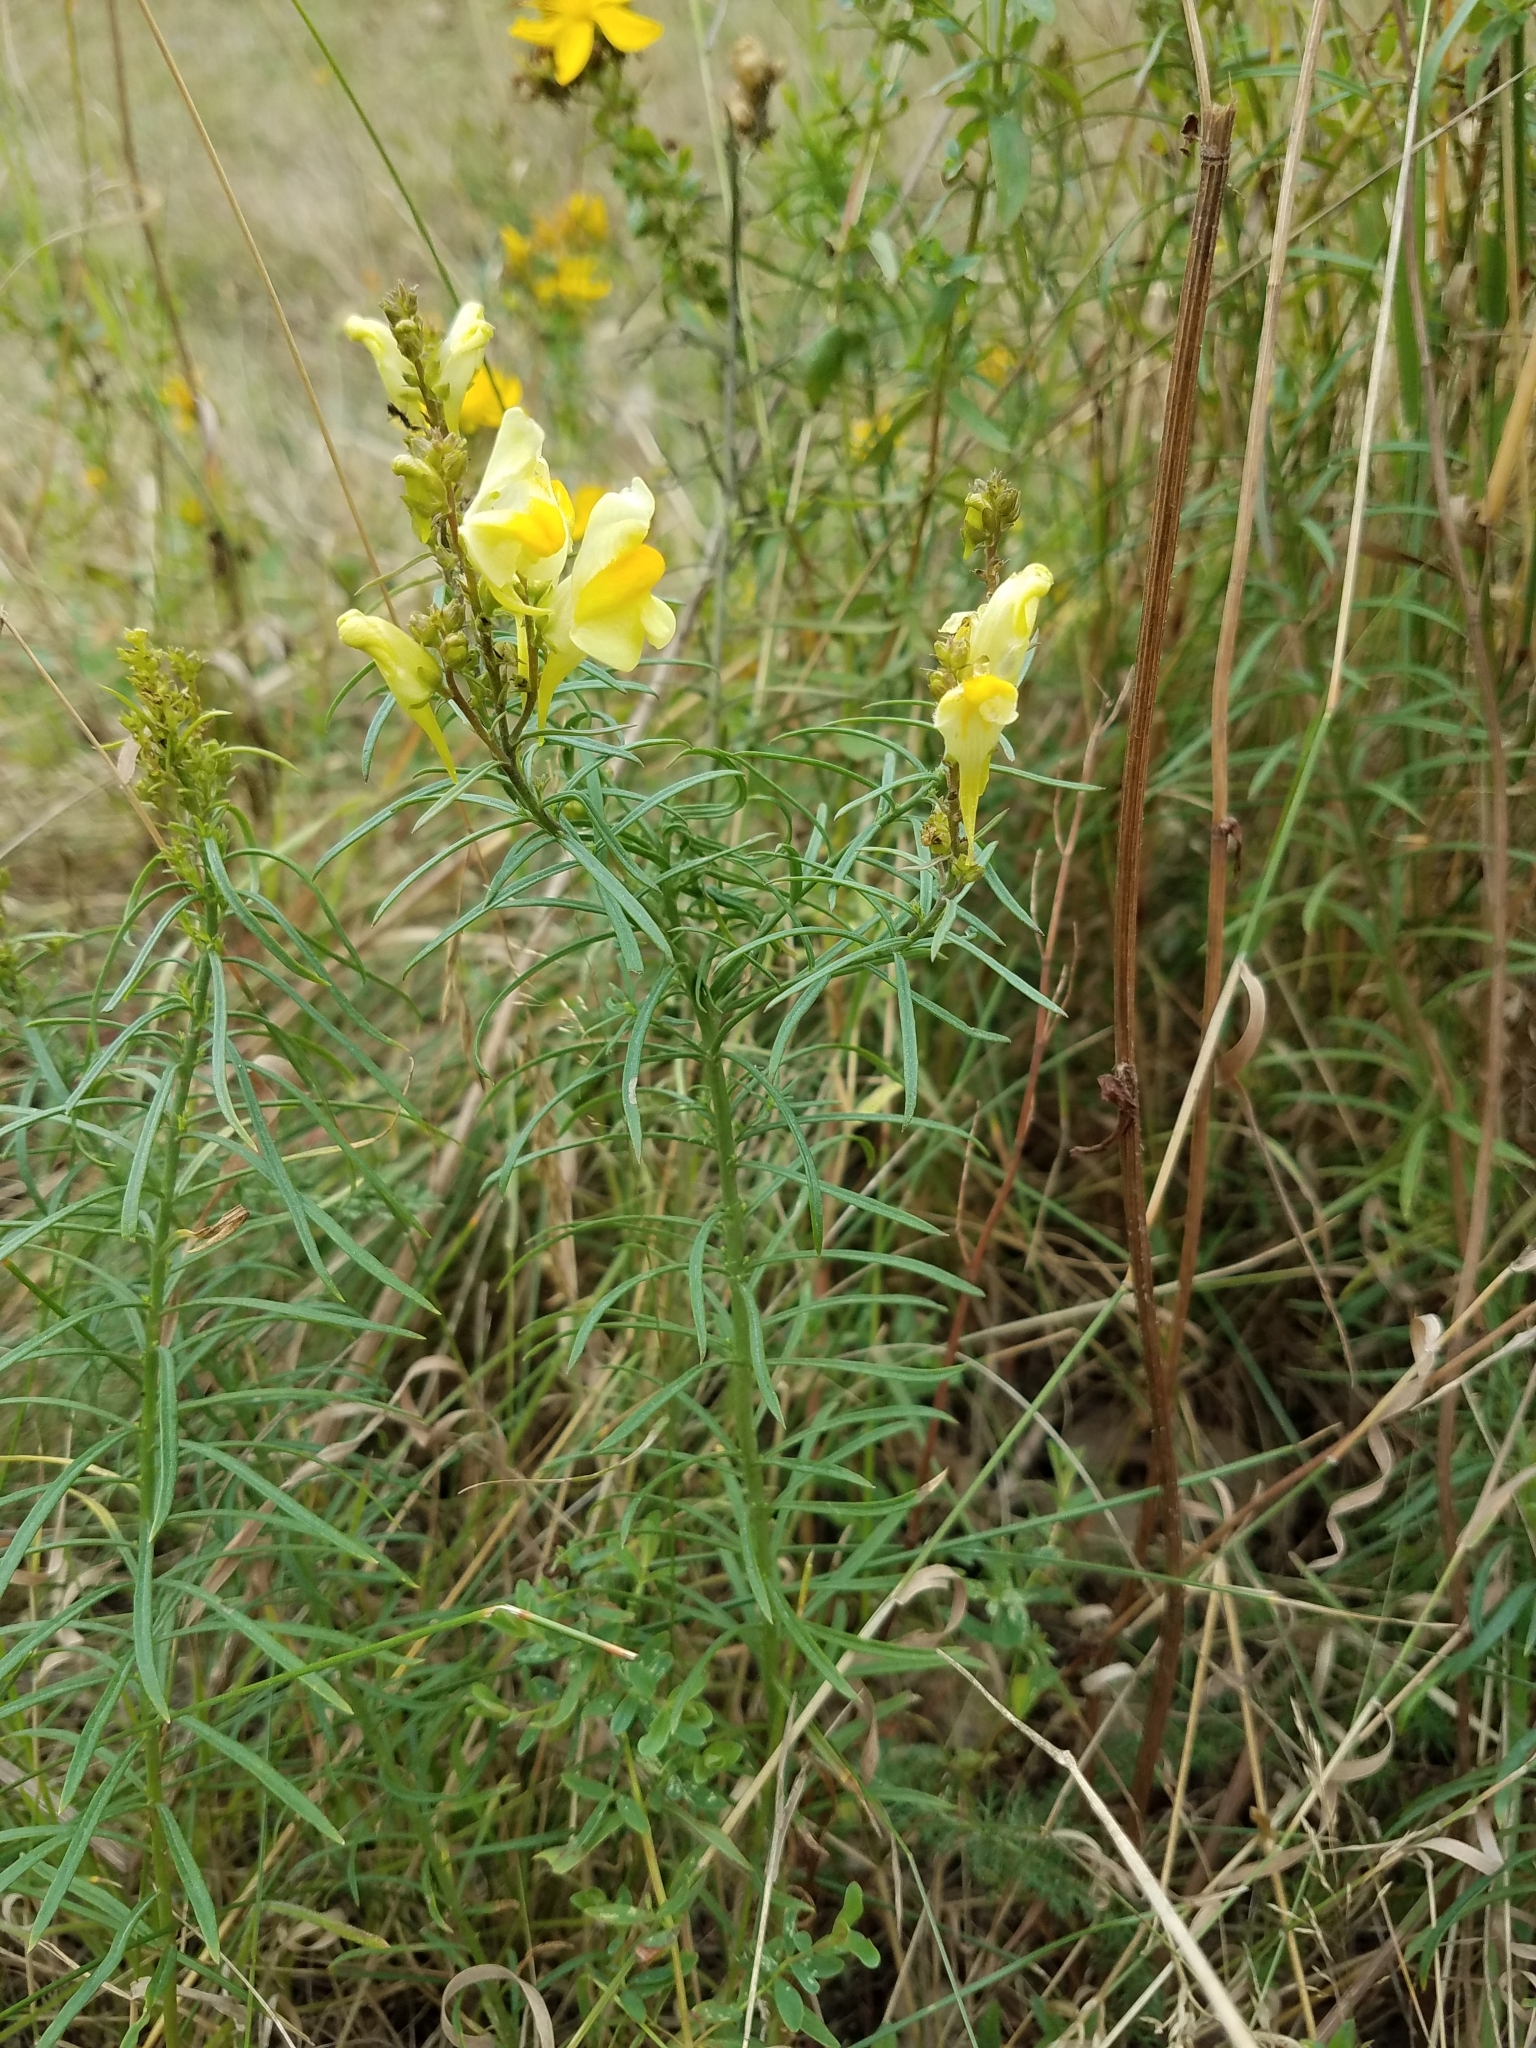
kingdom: Plantae
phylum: Tracheophyta
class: Magnoliopsida
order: Lamiales
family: Plantaginaceae
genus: Linaria
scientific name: Linaria vulgaris
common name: Butter and eggs
